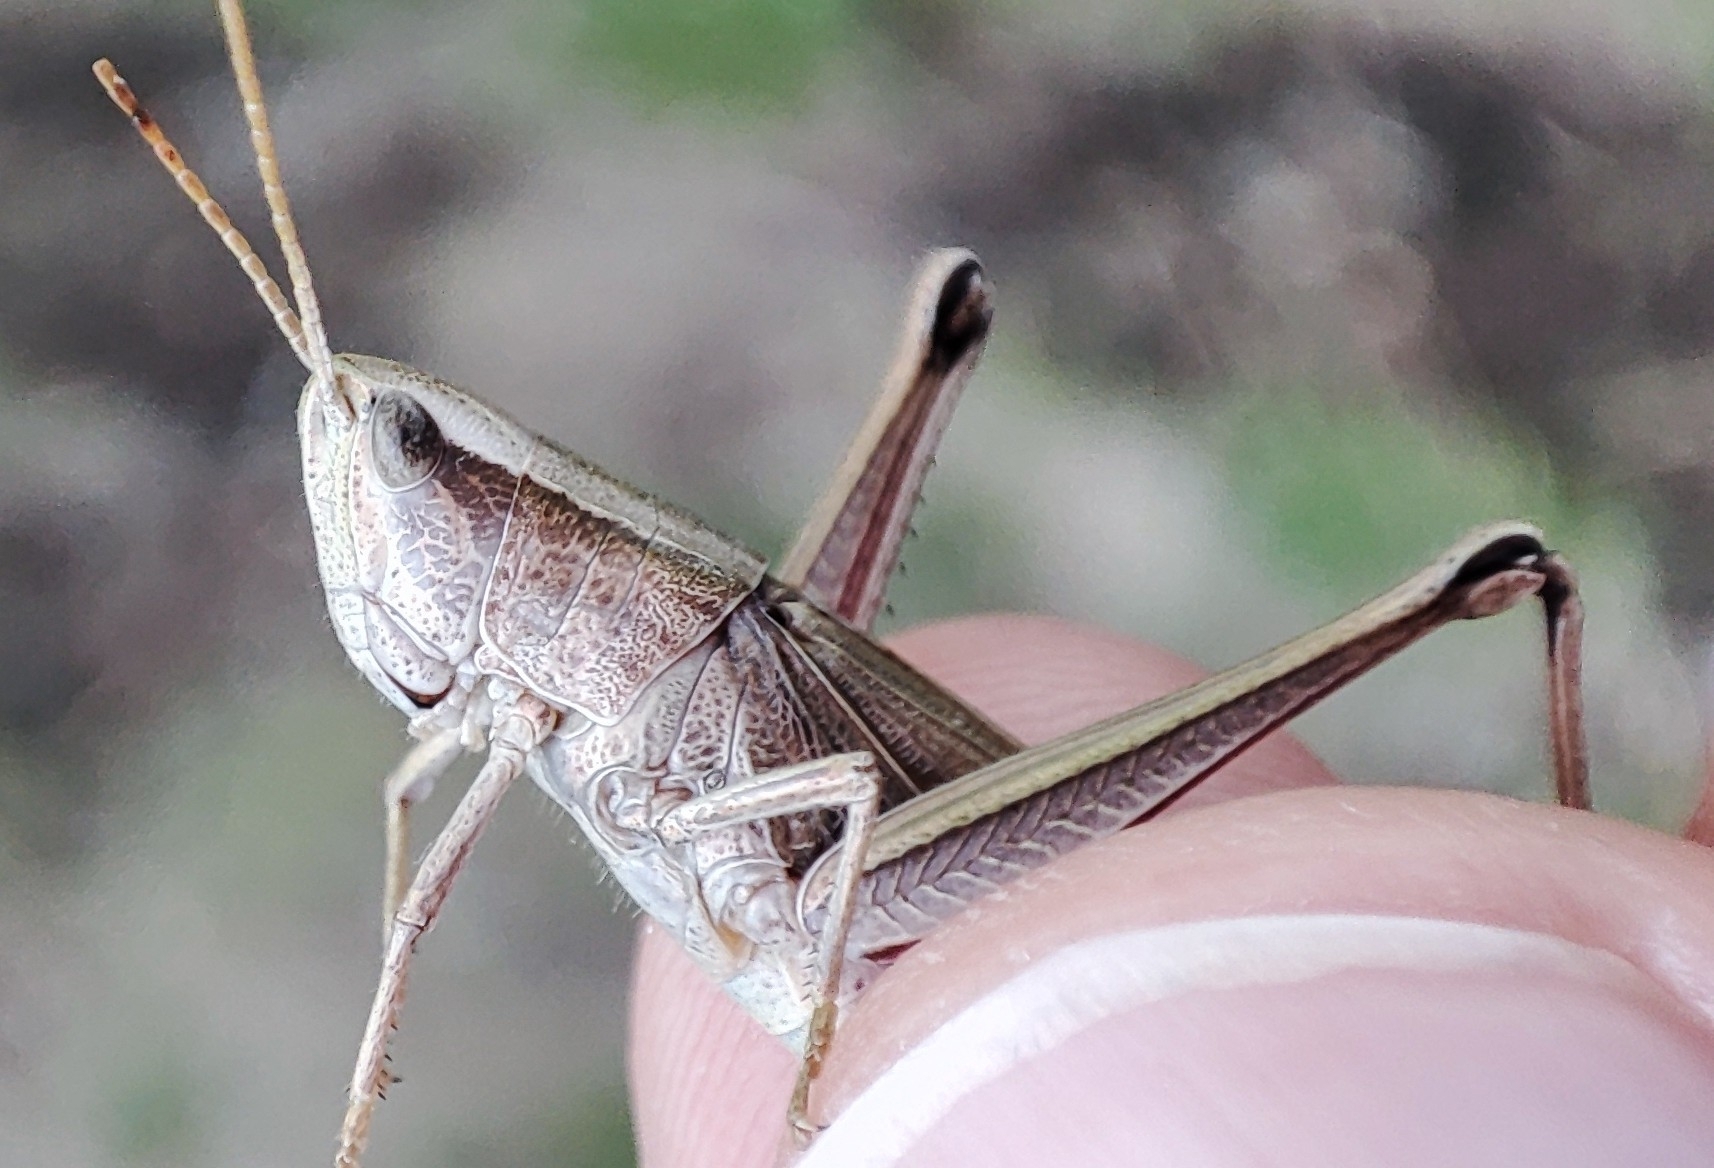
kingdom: Animalia
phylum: Arthropoda
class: Insecta
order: Orthoptera
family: Acrididae
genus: Chrysochraon
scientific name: Chrysochraon dispar
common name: Large gold grasshopper
